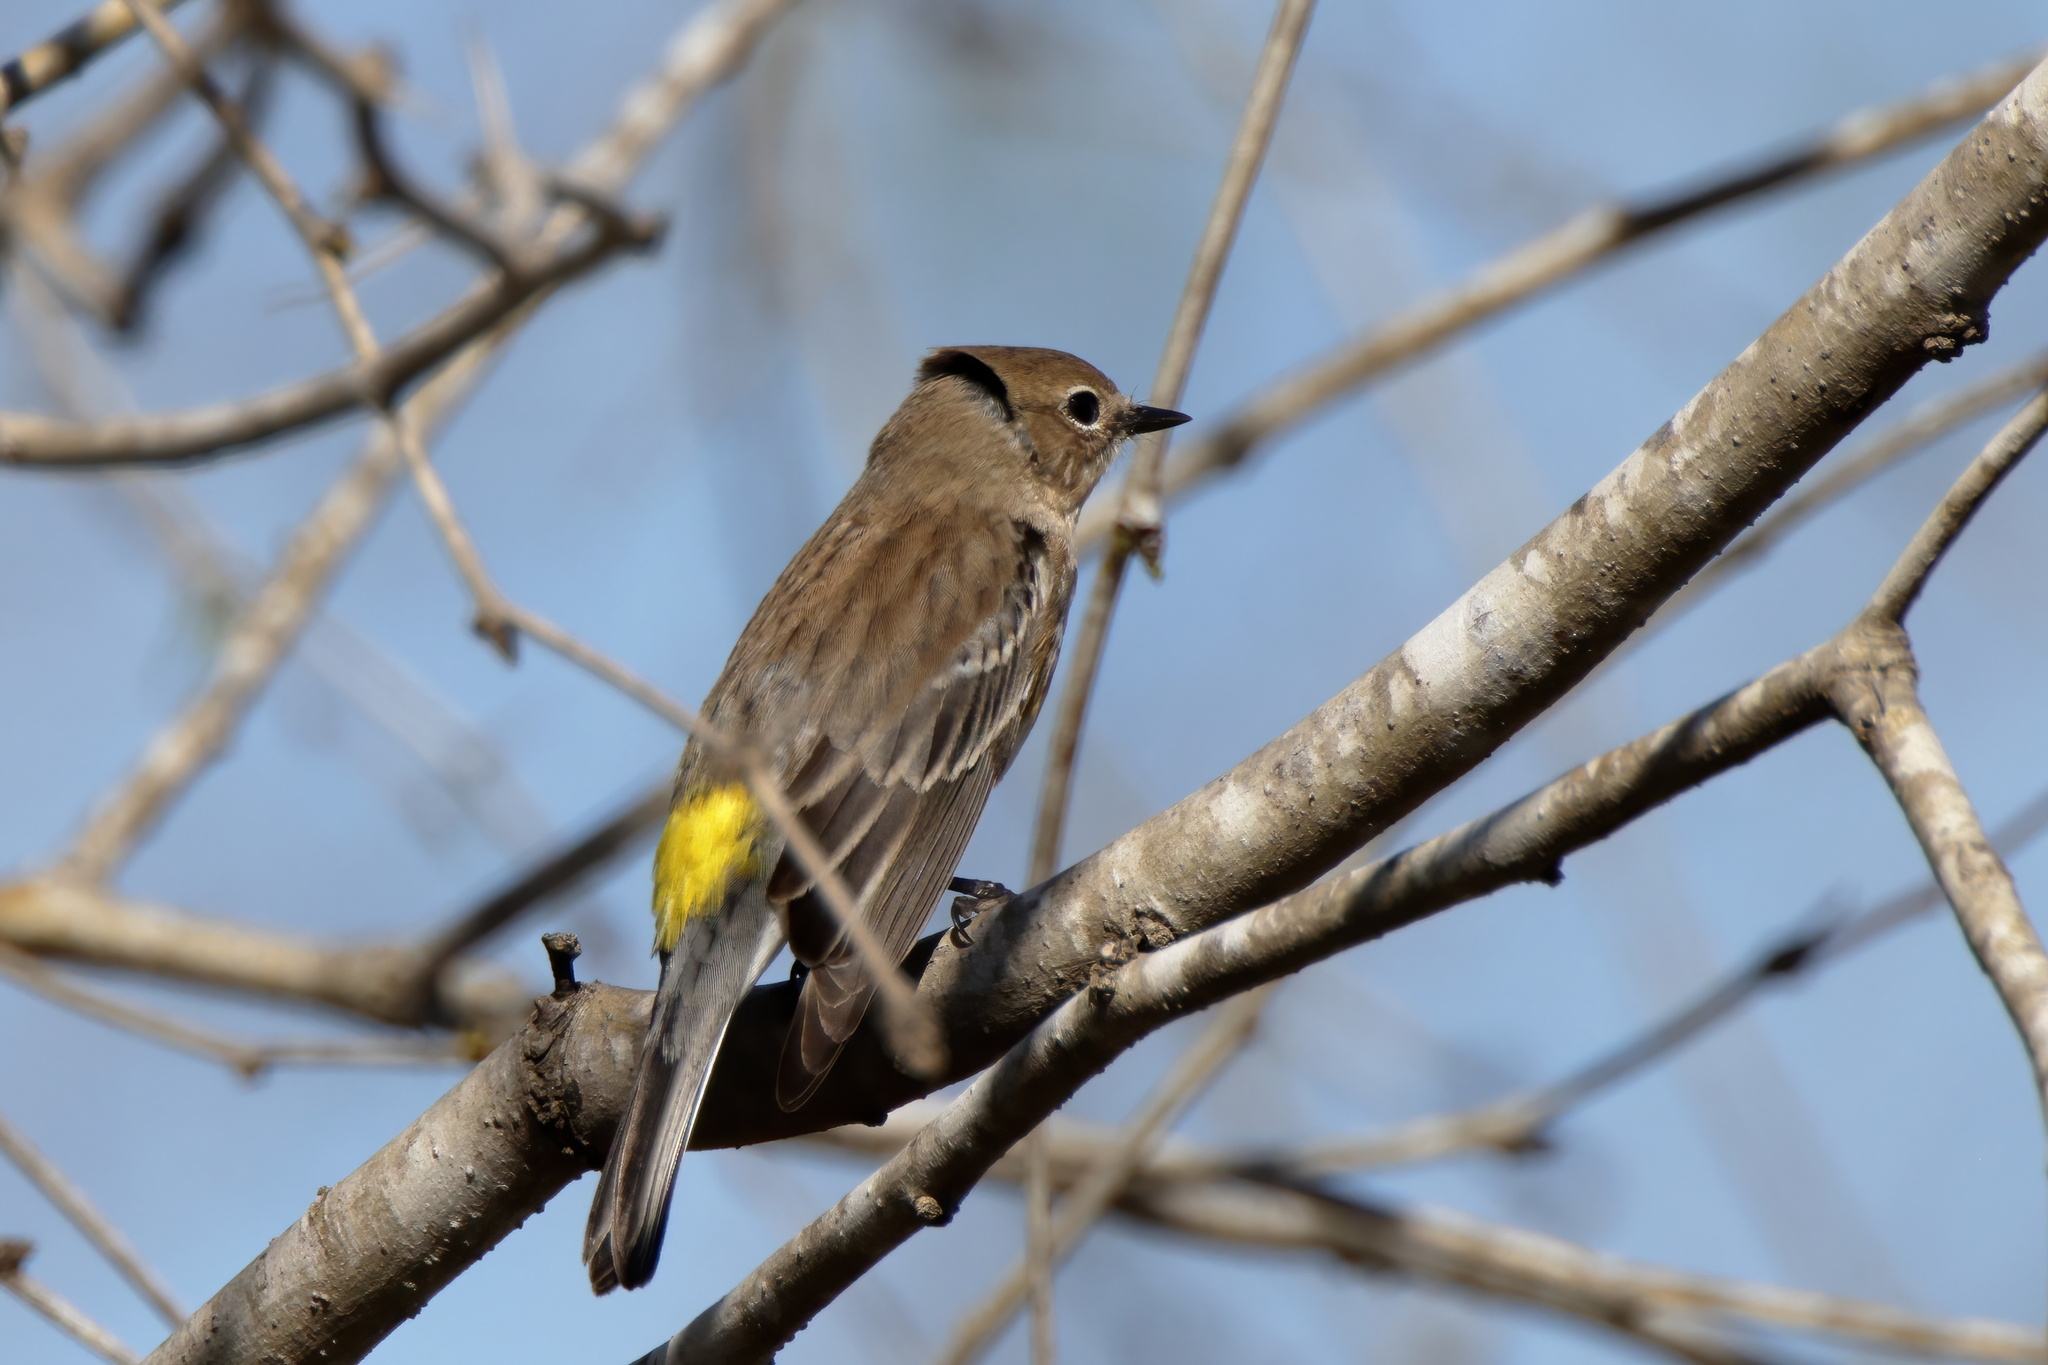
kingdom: Animalia
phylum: Chordata
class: Aves
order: Passeriformes
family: Parulidae
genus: Setophaga
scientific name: Setophaga coronata
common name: Myrtle warbler
